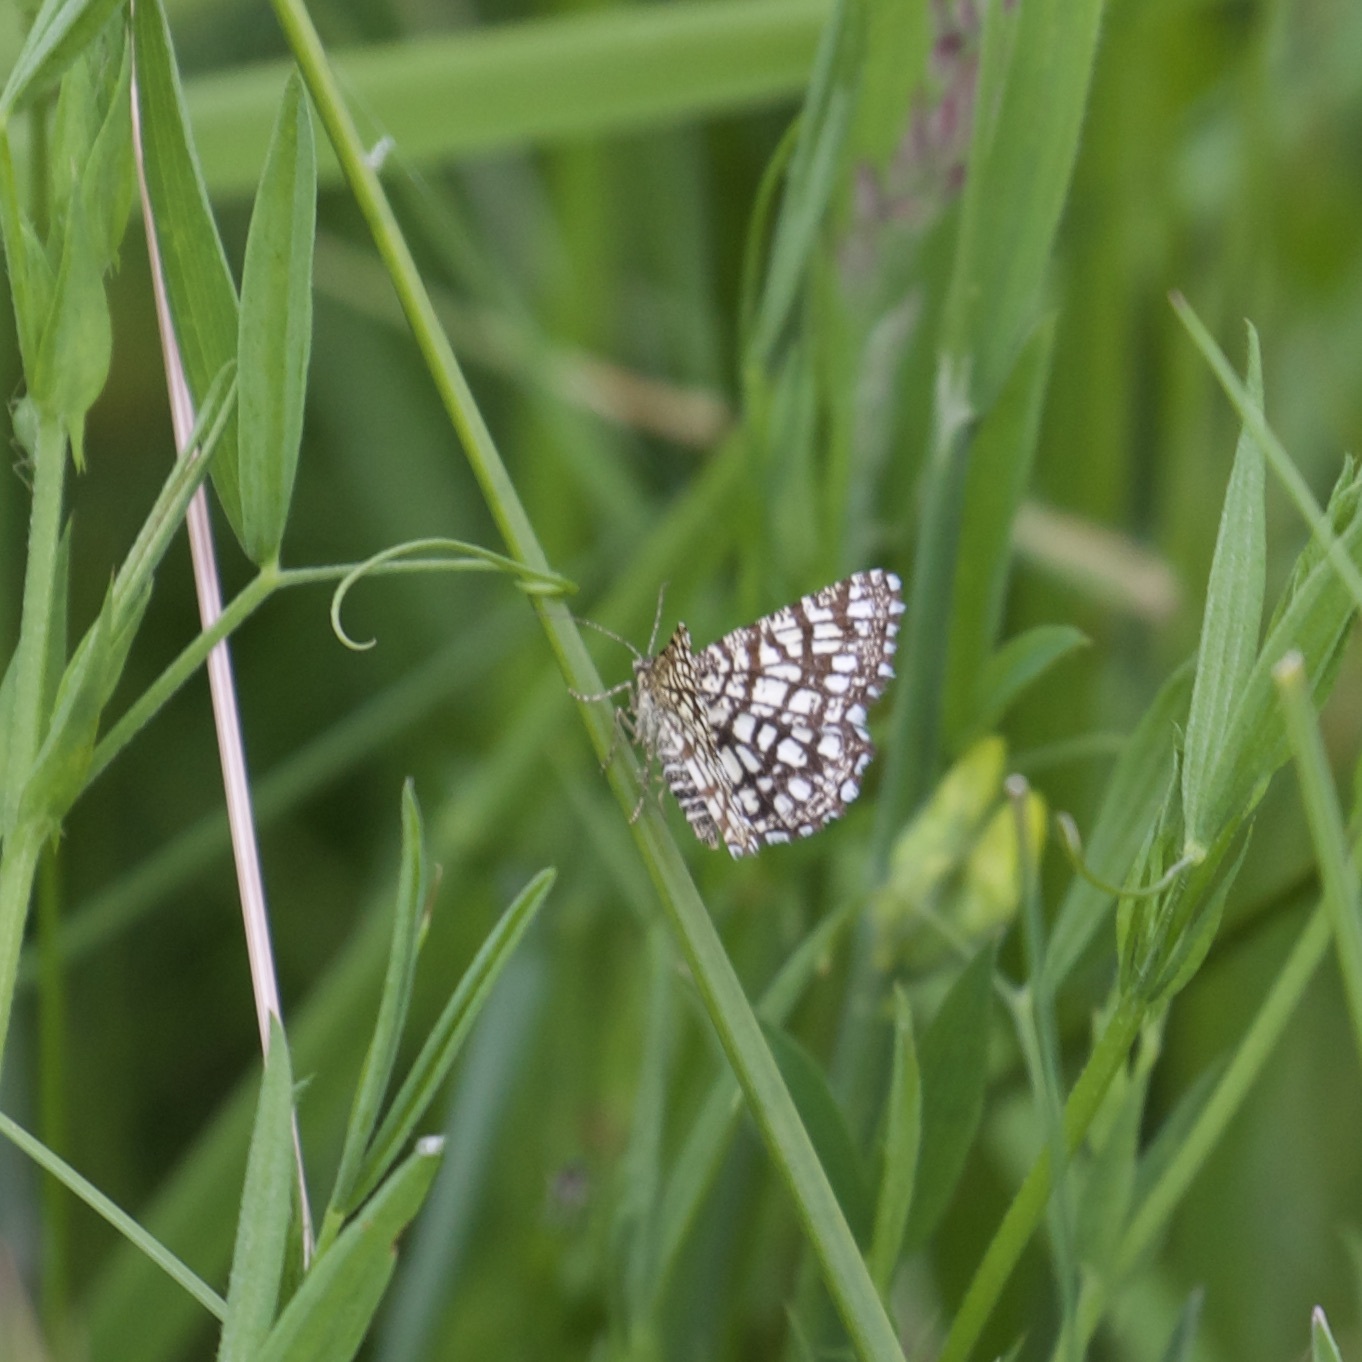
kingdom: Animalia
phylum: Arthropoda
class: Insecta
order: Lepidoptera
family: Geometridae
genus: Chiasmia
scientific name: Chiasmia clathrata
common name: Latticed heath
